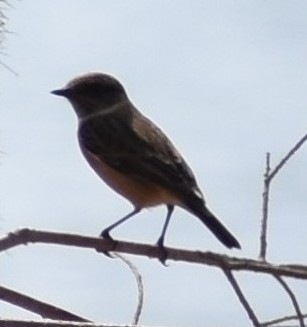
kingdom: Animalia
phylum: Chordata
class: Aves
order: Passeriformes
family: Muscicapidae
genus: Saxicola
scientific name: Saxicola rubicola
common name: European stonechat
